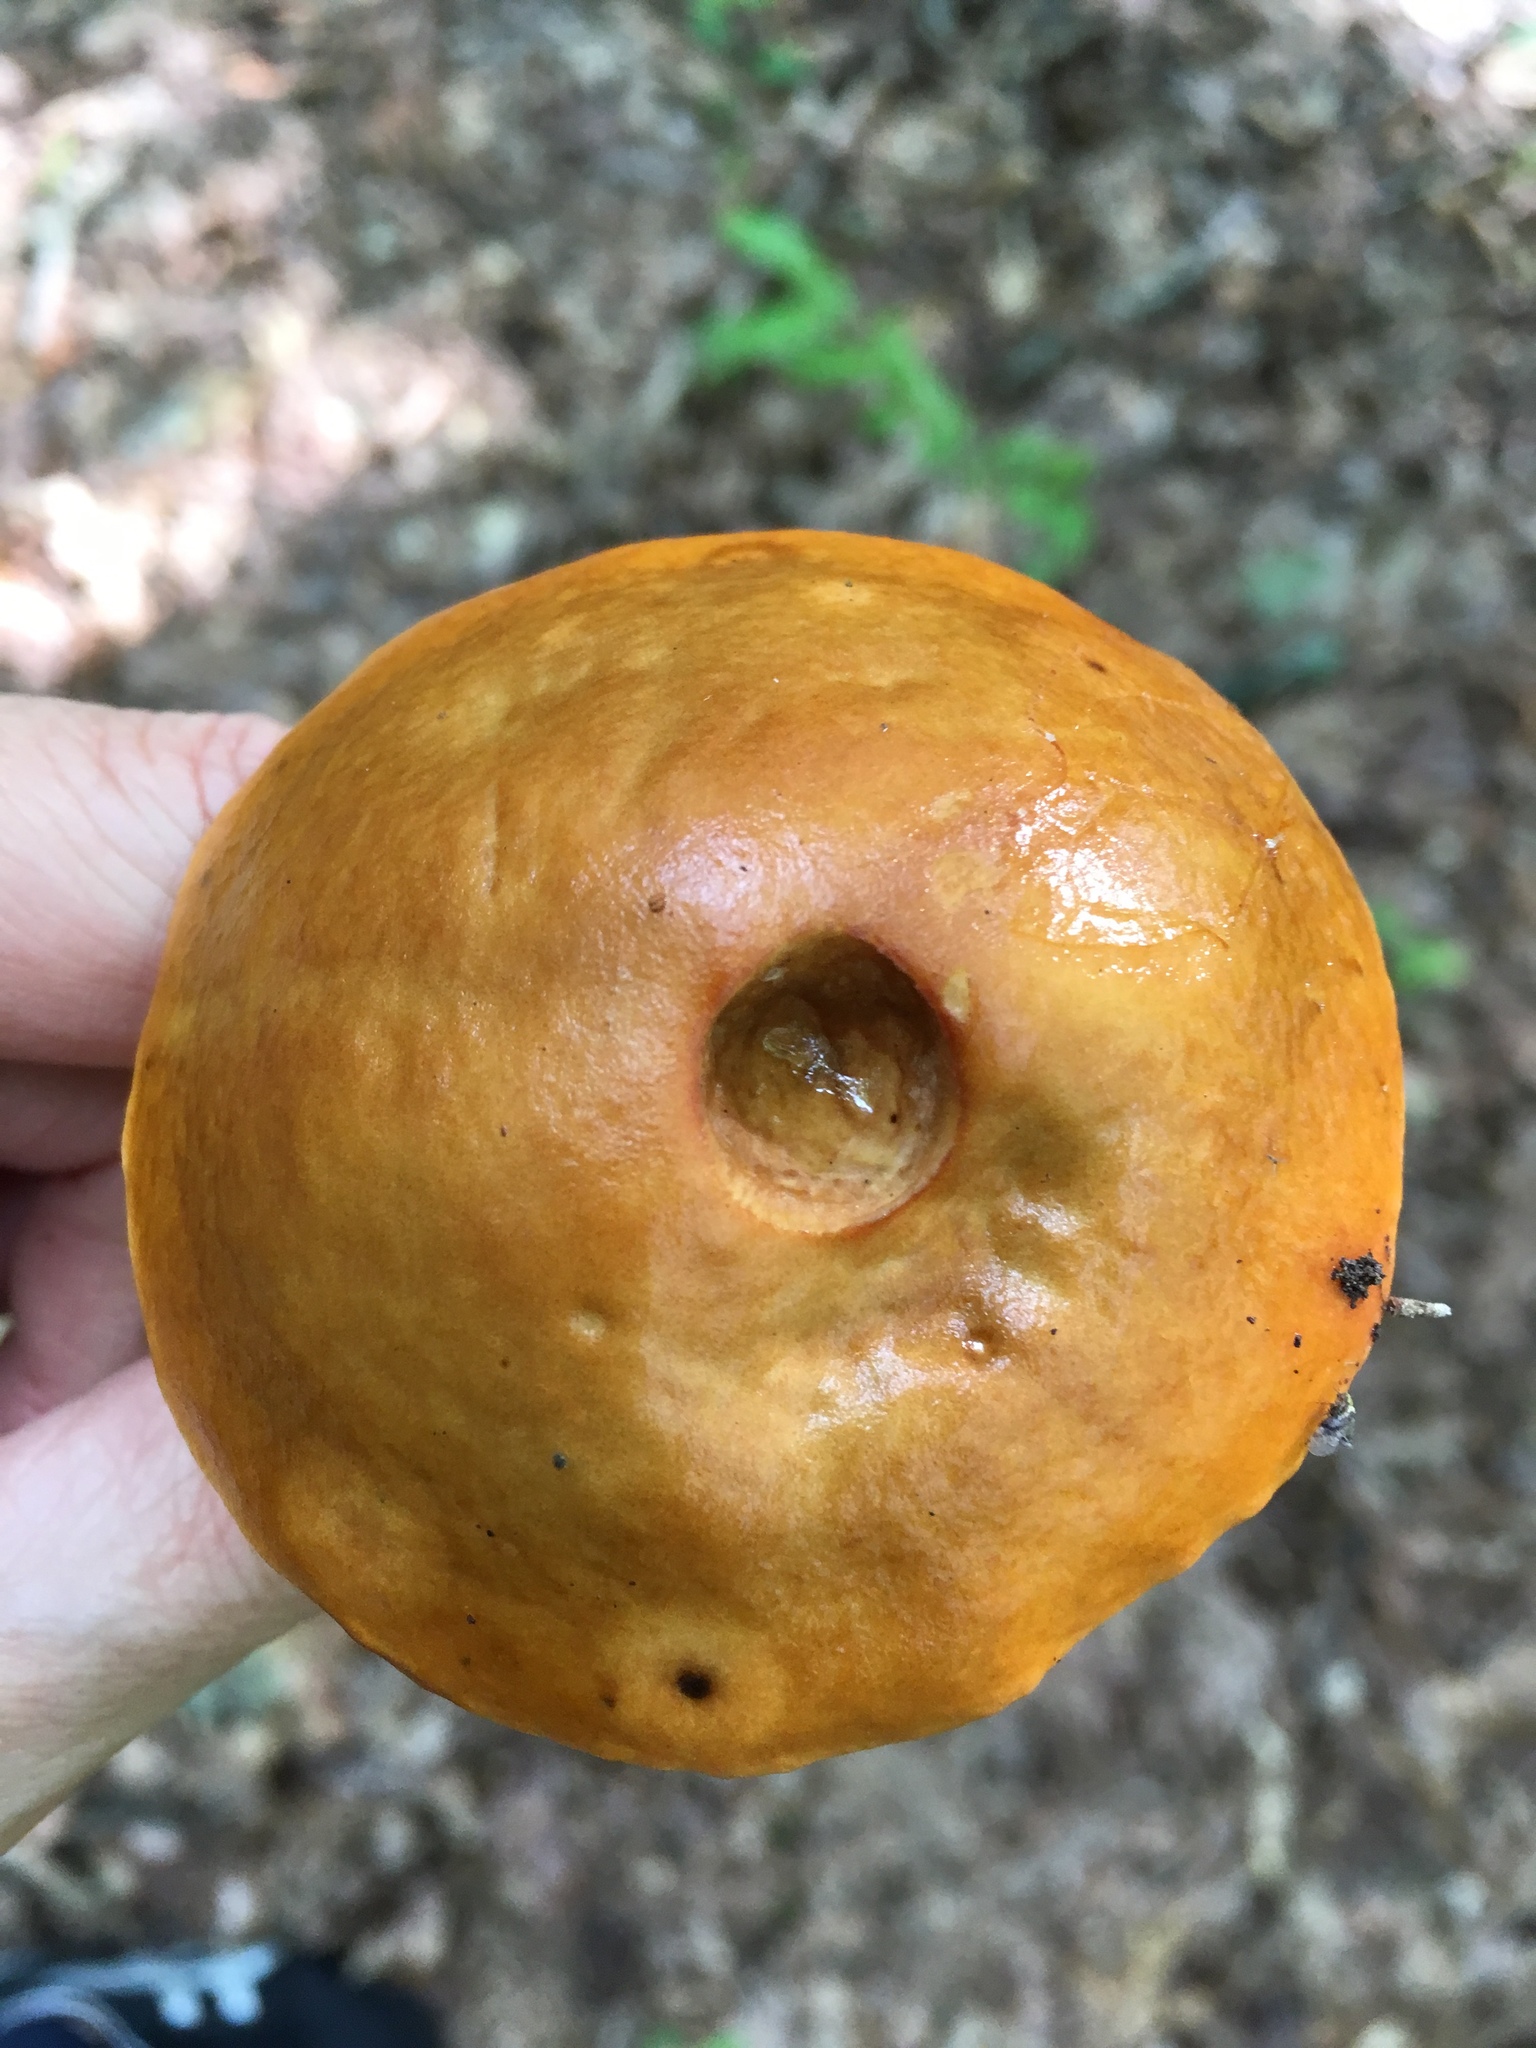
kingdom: Fungi
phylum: Basidiomycota
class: Agaricomycetes
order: Boletales
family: Boletaceae
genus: Leccinum
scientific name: Leccinum longicurvipes
